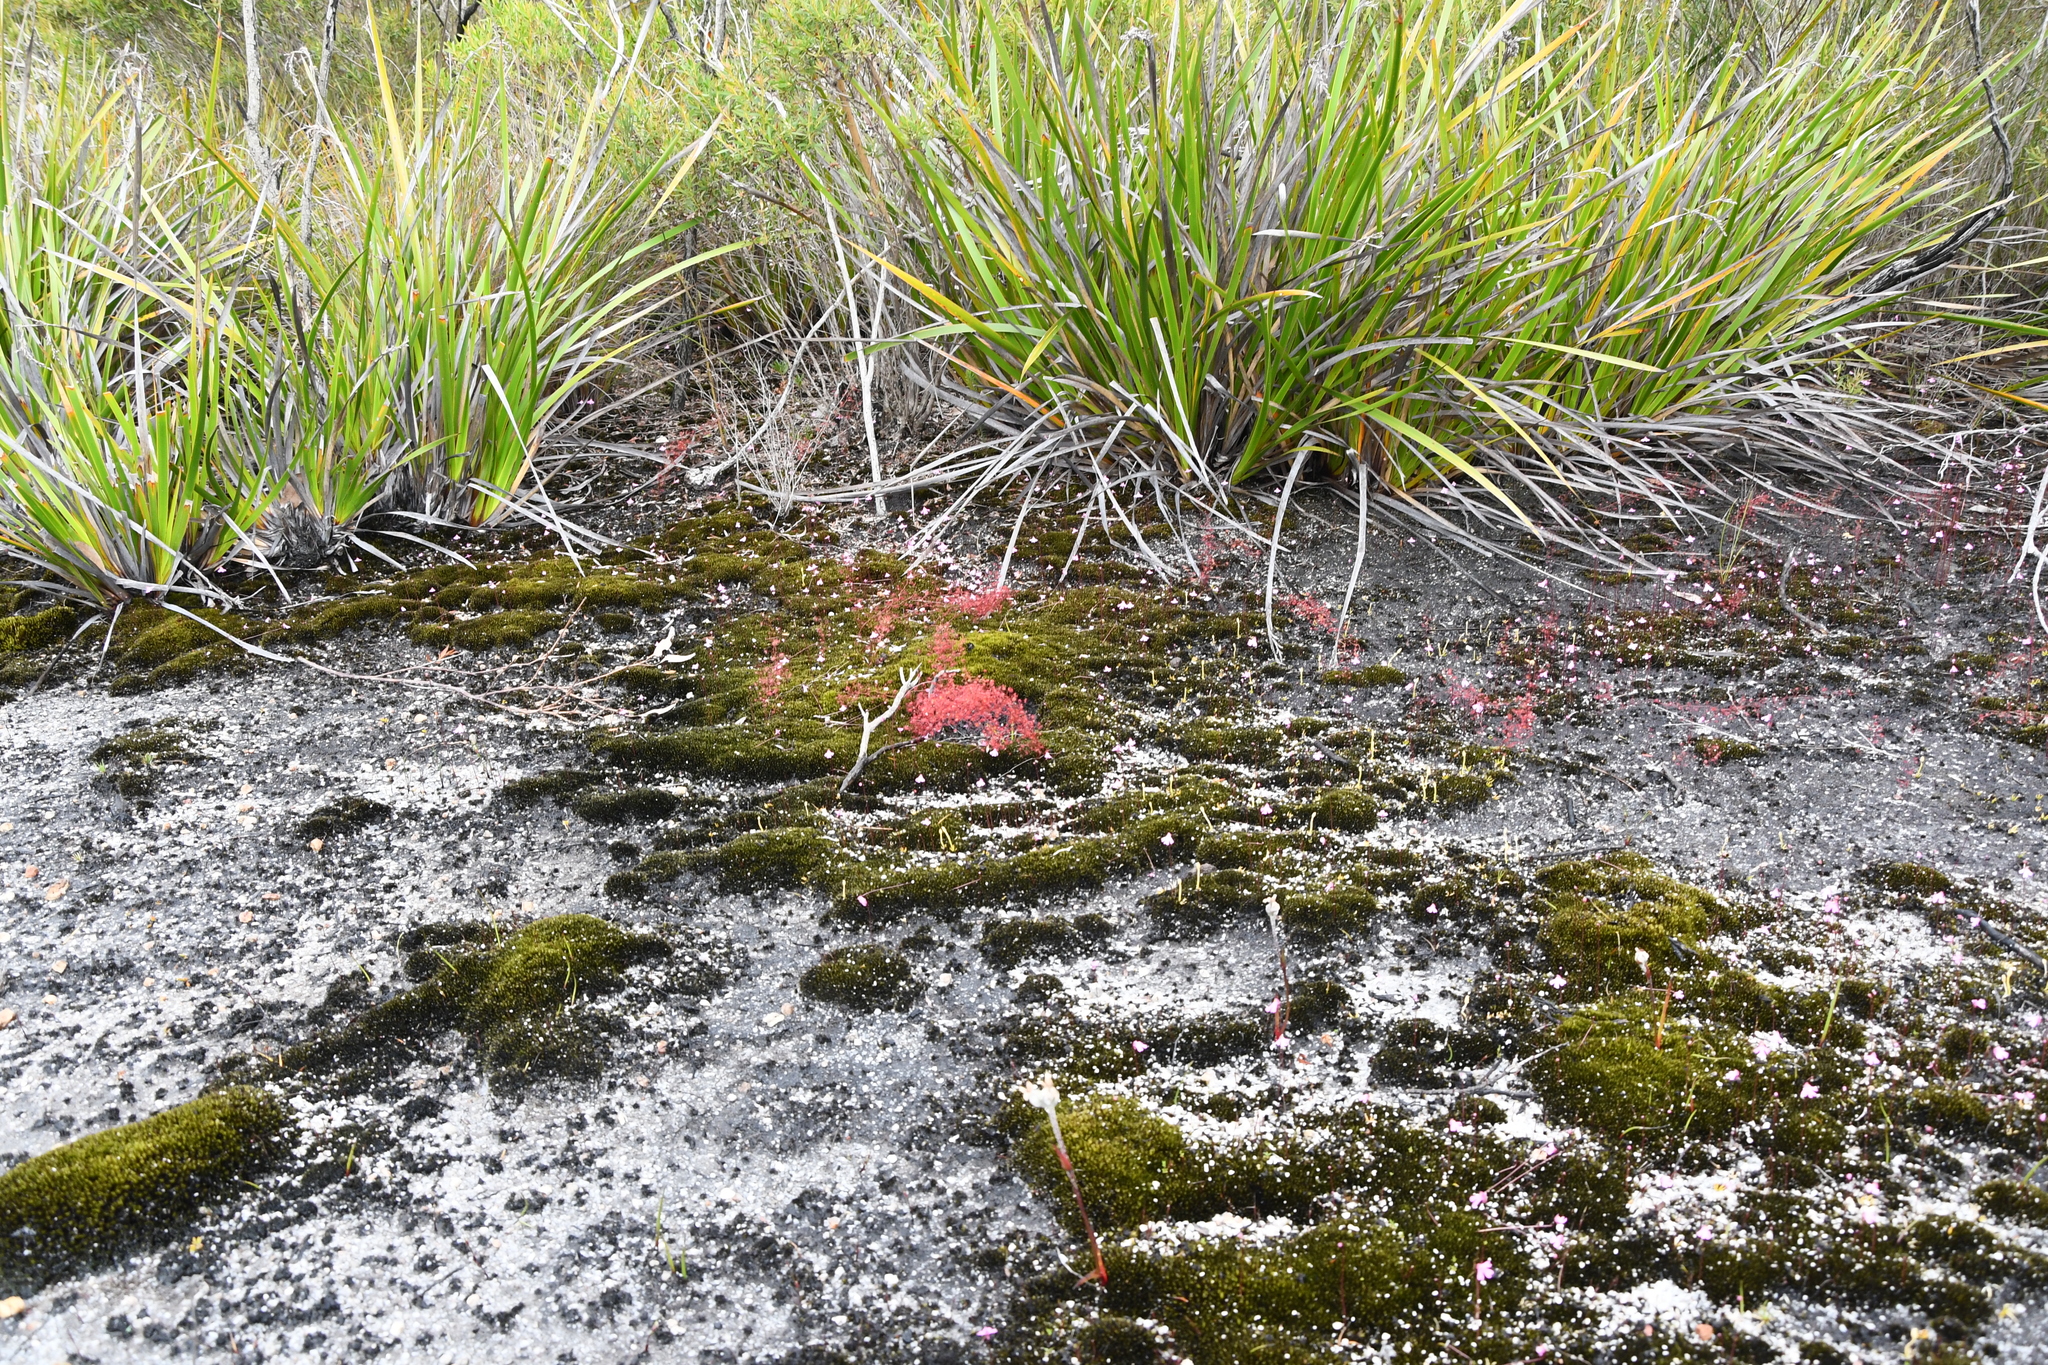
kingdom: Plantae
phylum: Tracheophyta
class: Magnoliopsida
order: Caryophyllales
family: Droseraceae
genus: Drosera
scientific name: Drosera
